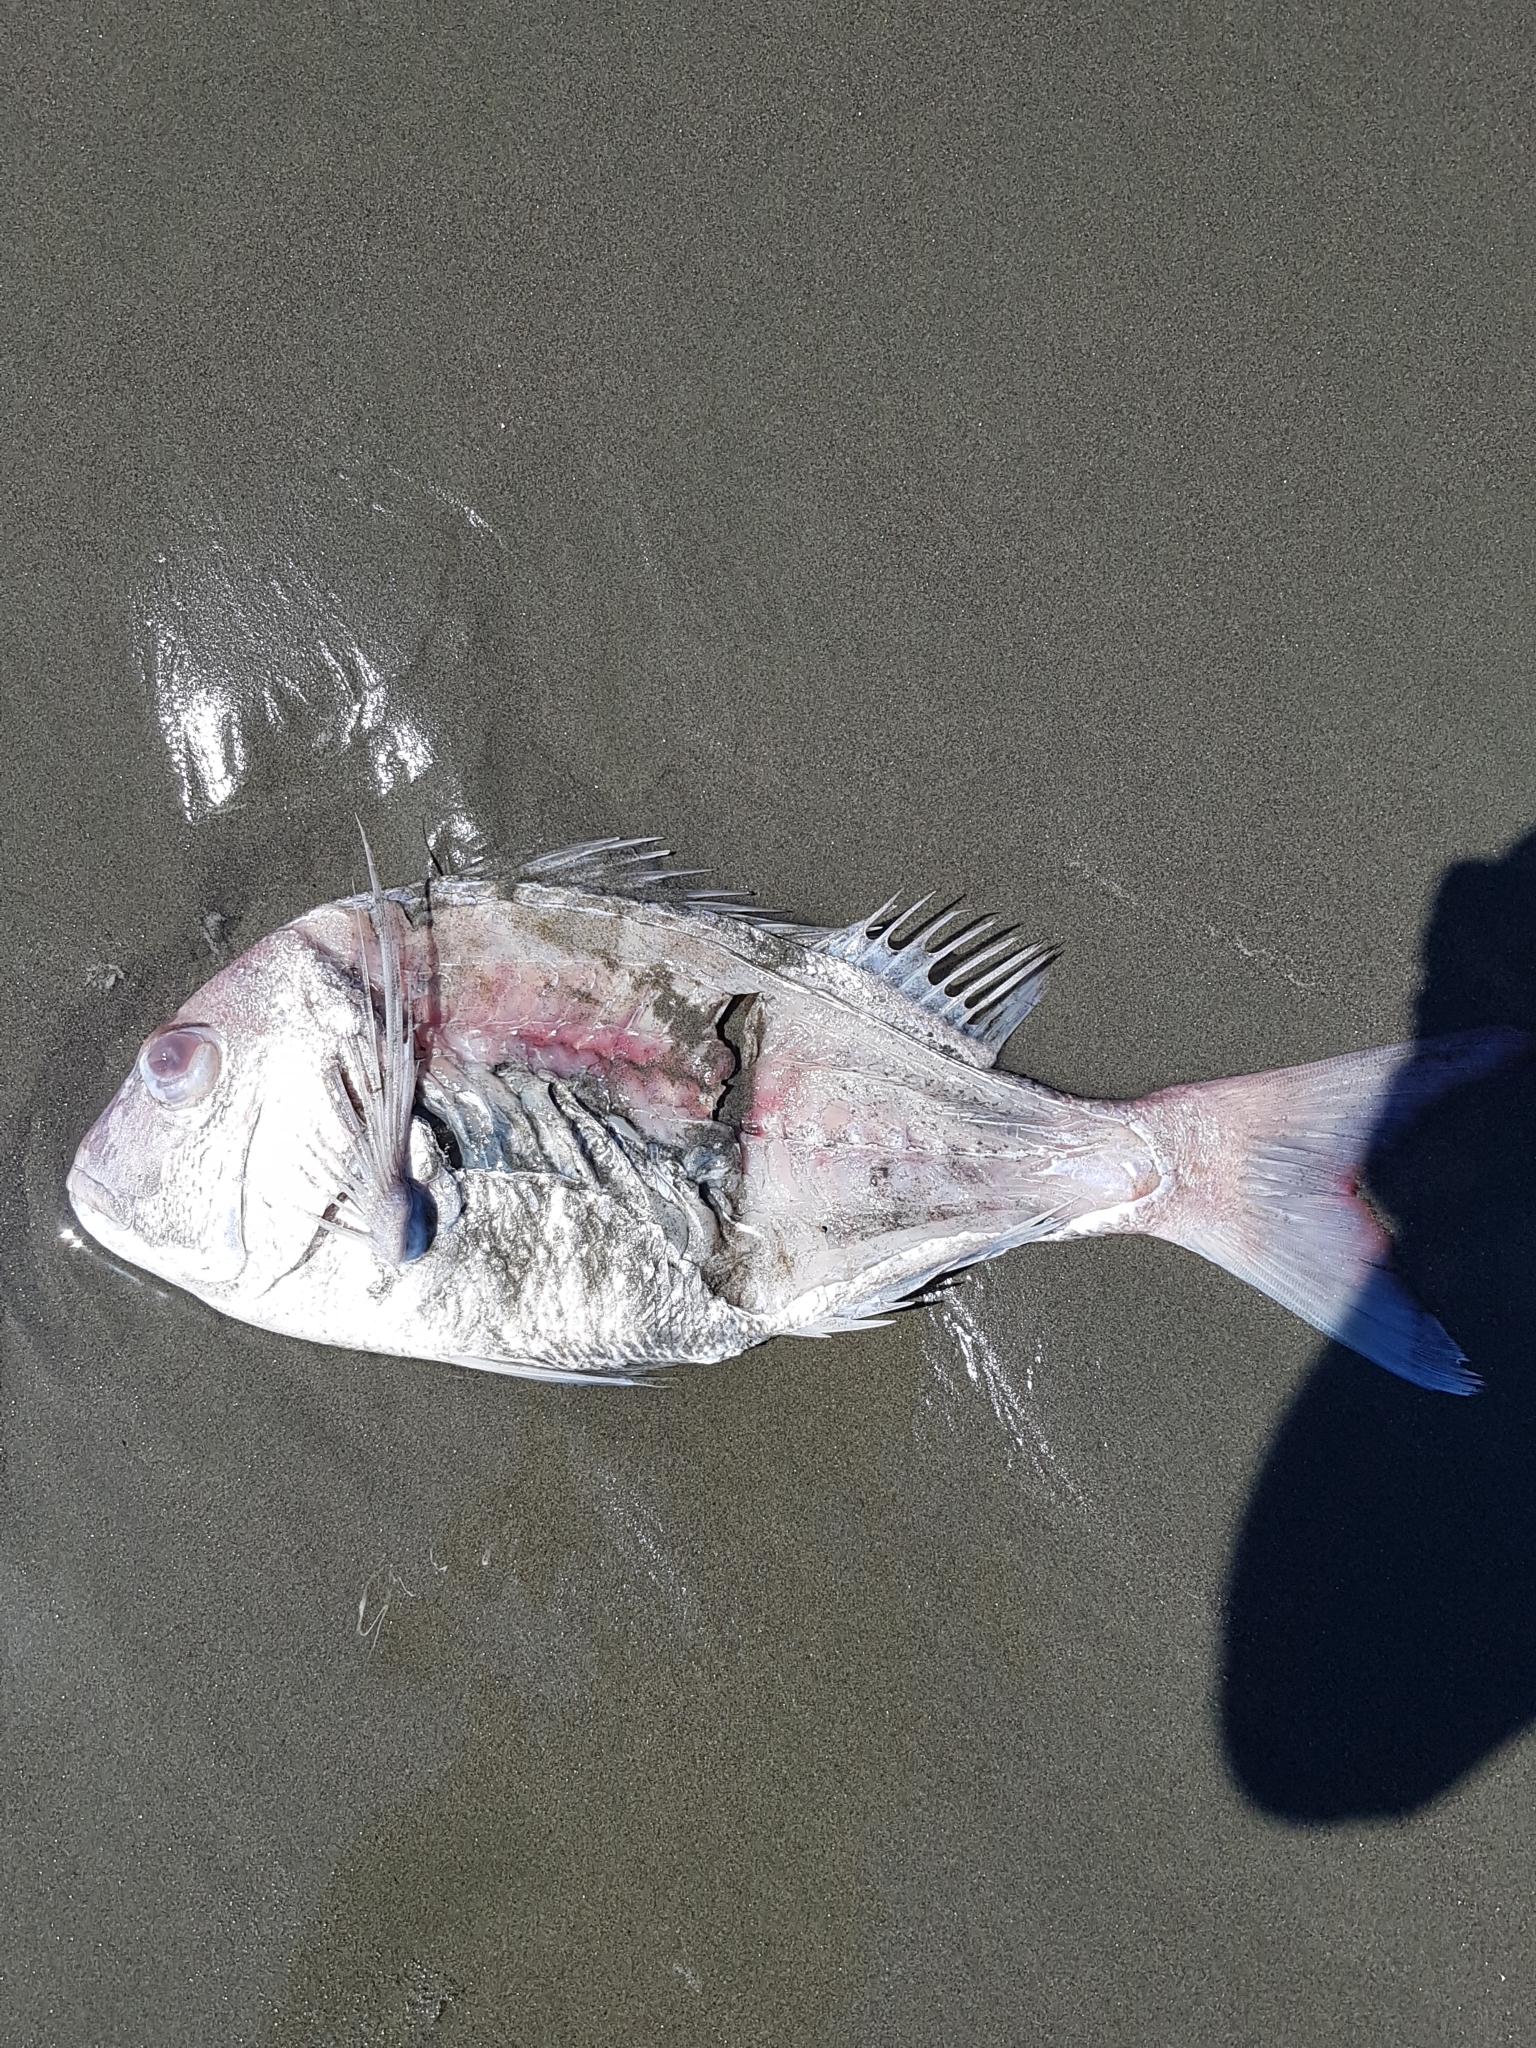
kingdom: Animalia
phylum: Chordata
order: Perciformes
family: Sparidae
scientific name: Sparidae
